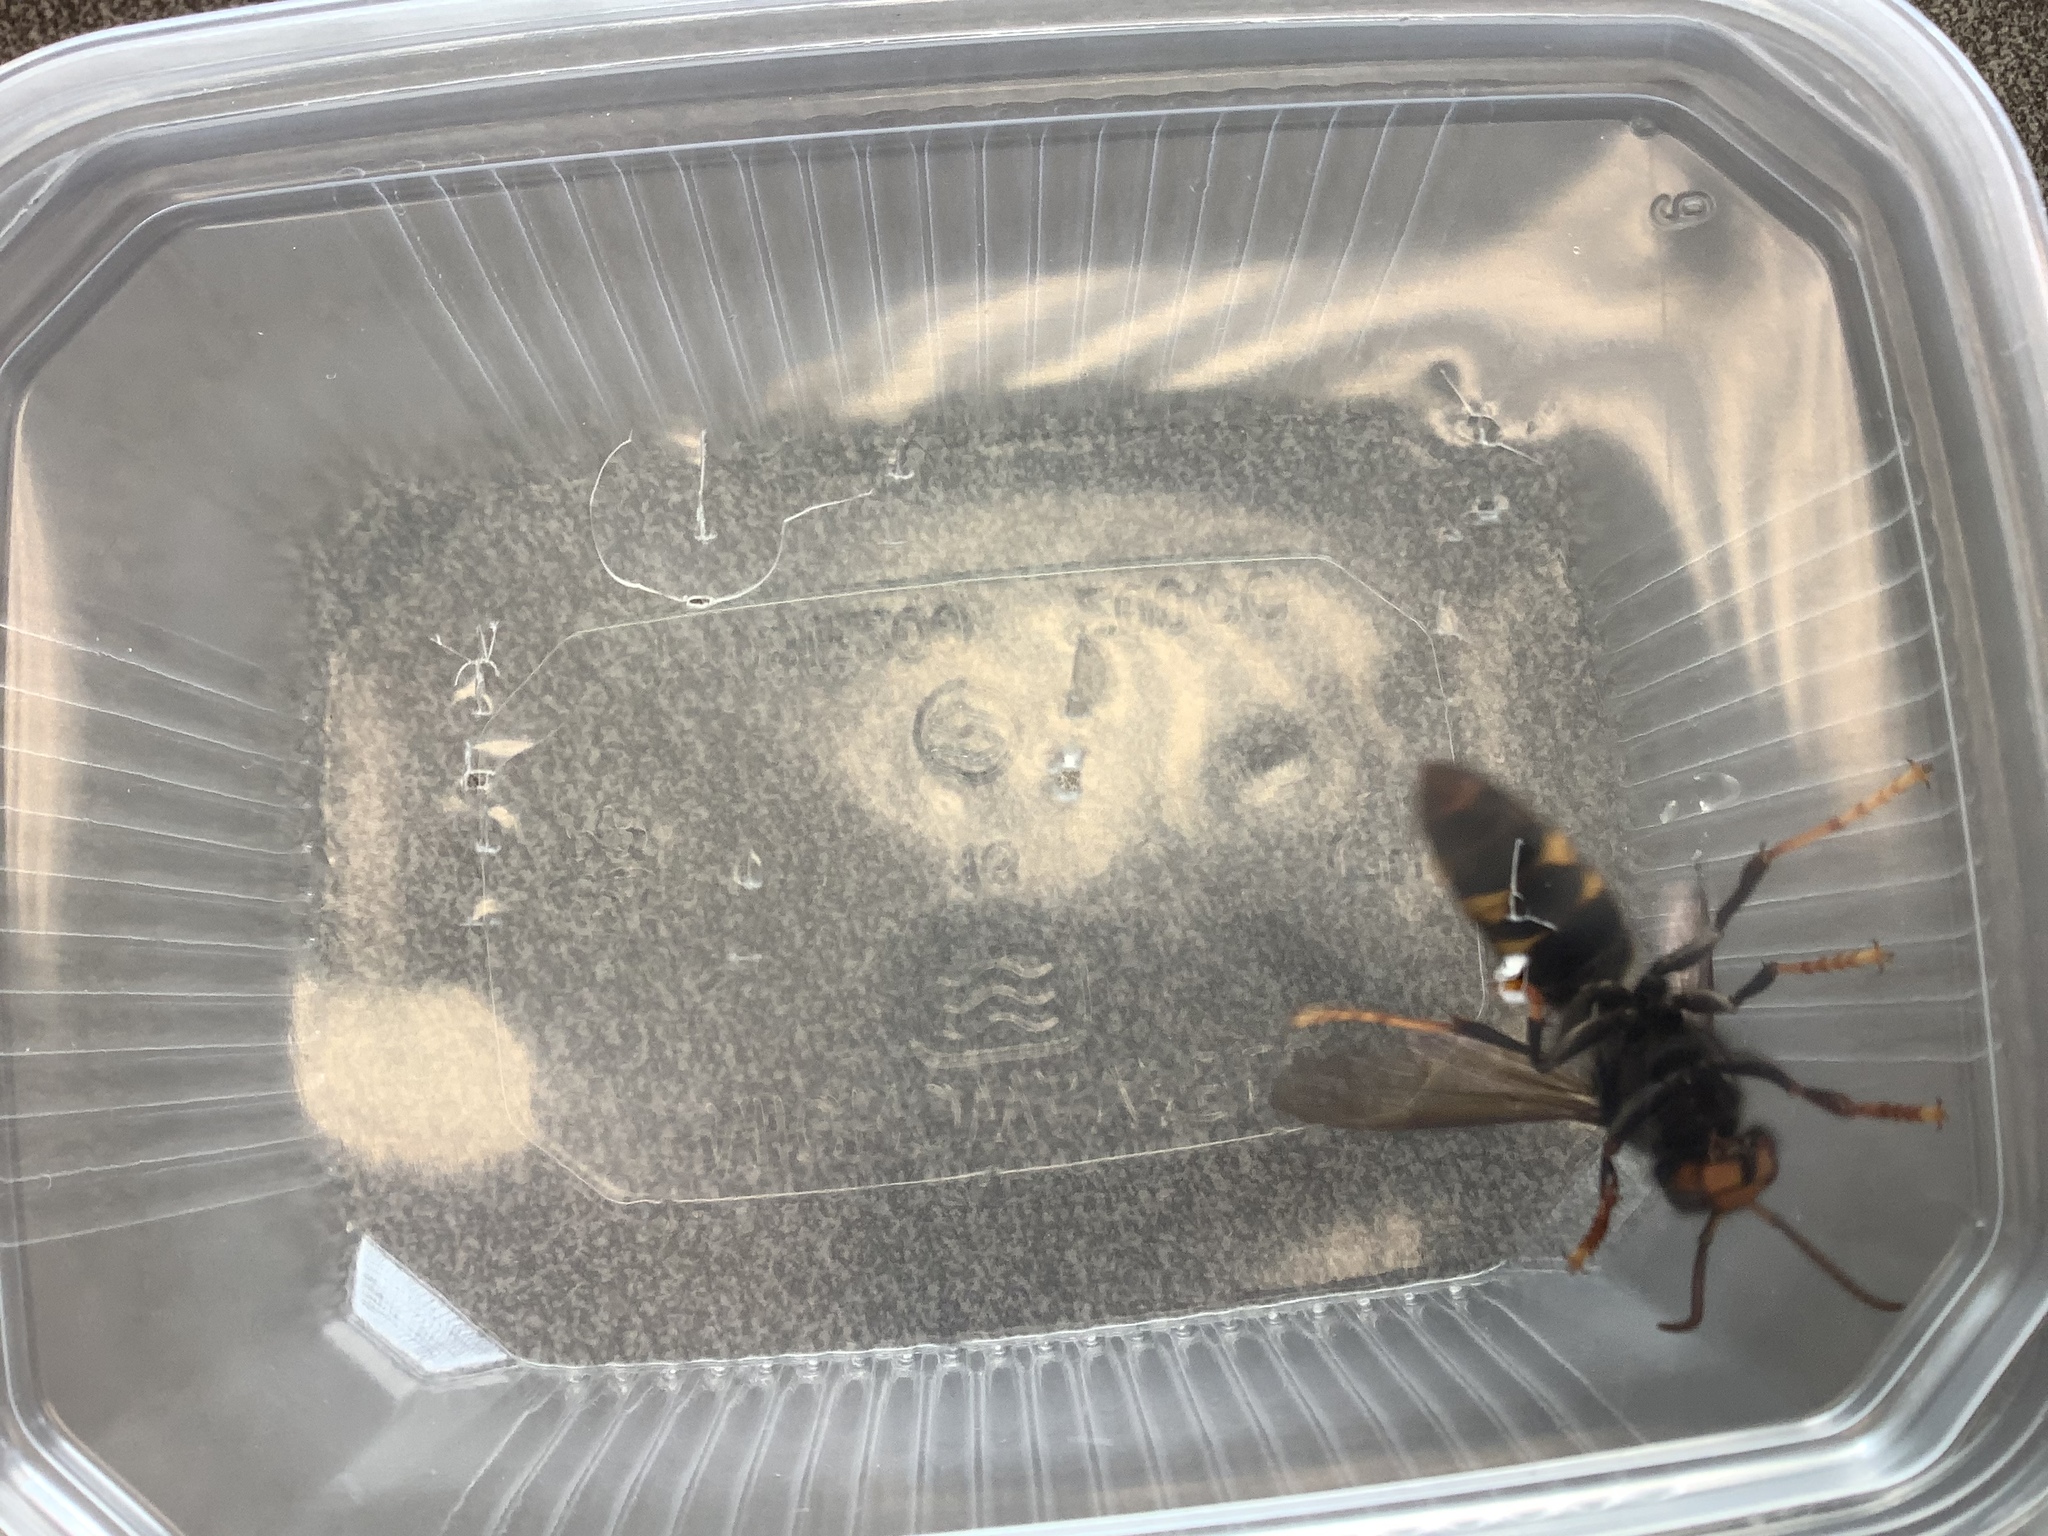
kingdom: Animalia
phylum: Arthropoda
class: Insecta
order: Hymenoptera
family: Vespidae
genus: Vespa
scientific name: Vespa velutina
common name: Asian hornet
